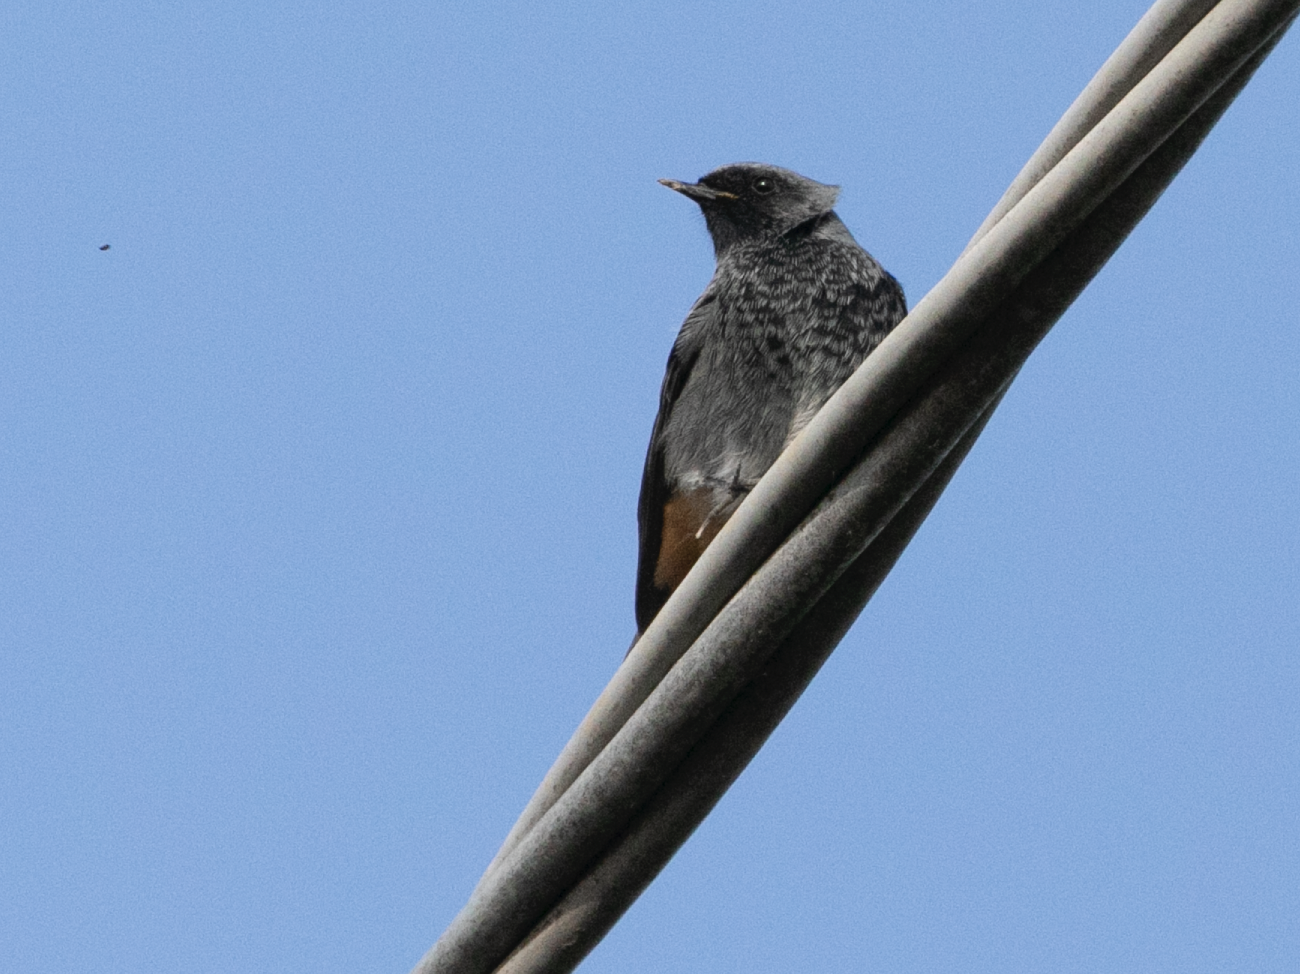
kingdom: Animalia
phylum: Chordata
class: Aves
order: Passeriformes
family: Muscicapidae
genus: Phoenicurus
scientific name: Phoenicurus ochruros
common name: Black redstart
